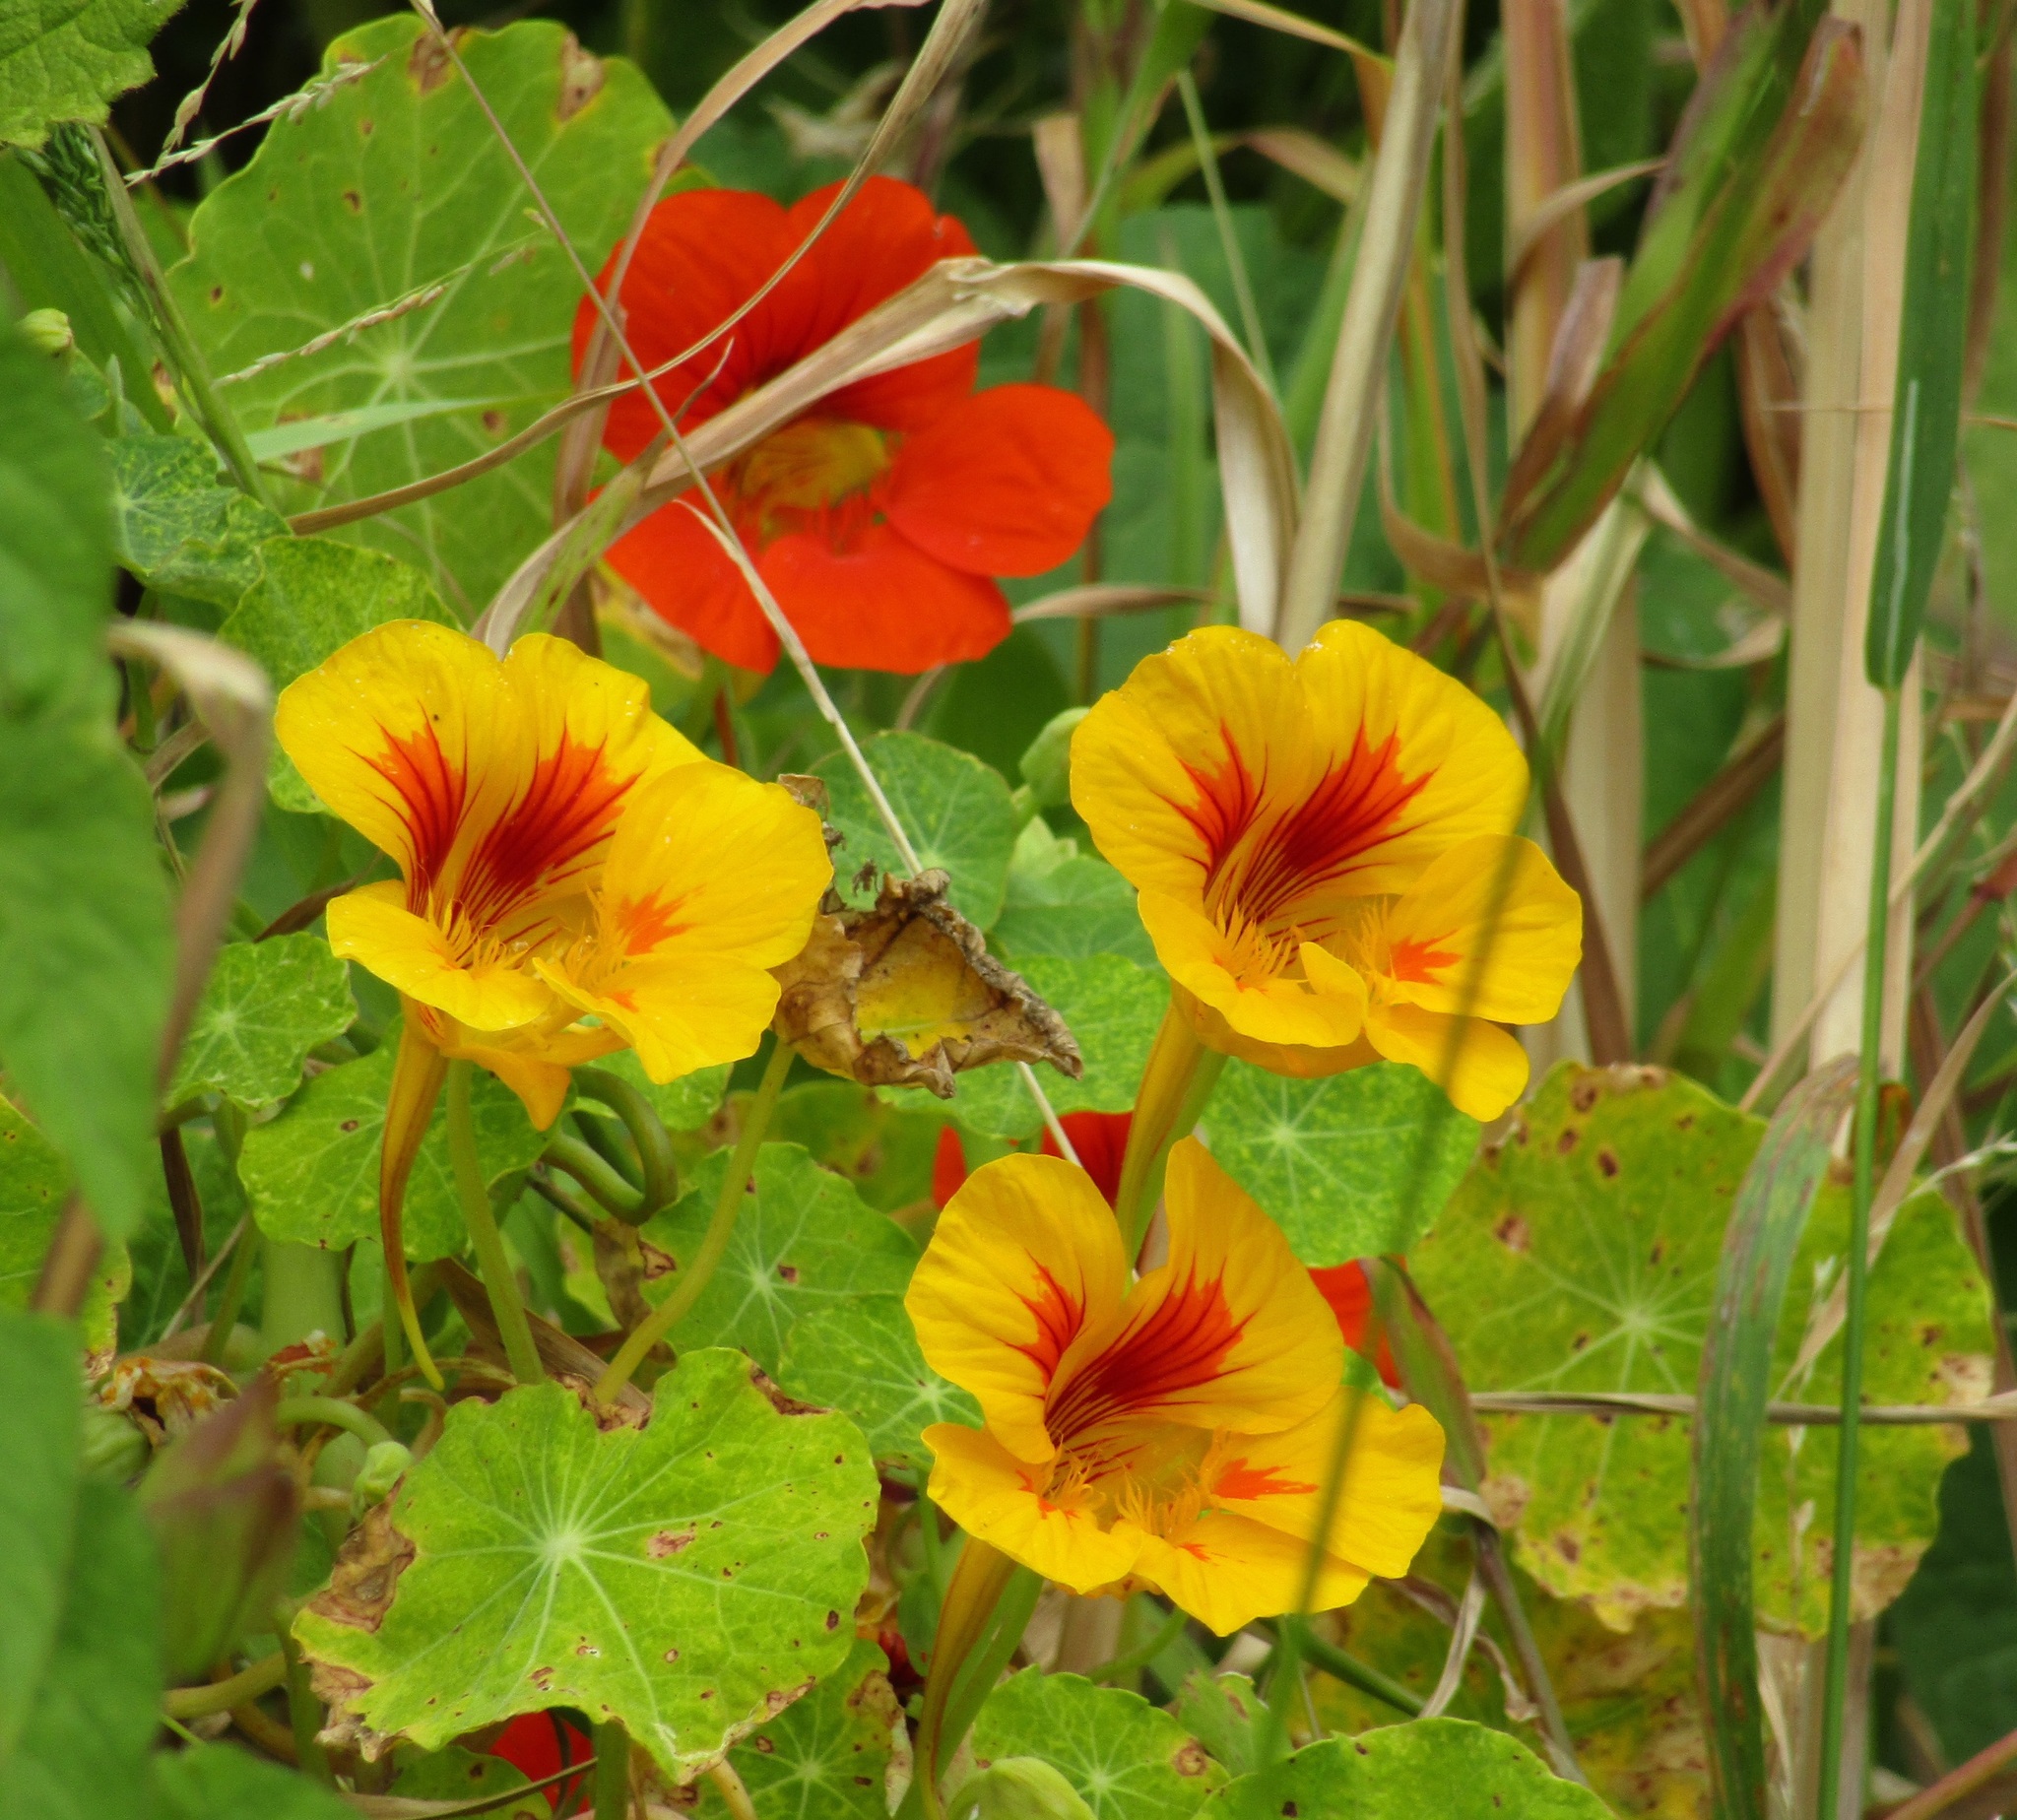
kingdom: Plantae
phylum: Tracheophyta
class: Magnoliopsida
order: Brassicales
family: Tropaeolaceae
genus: Tropaeolum
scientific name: Tropaeolum majus
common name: Nasturtium
